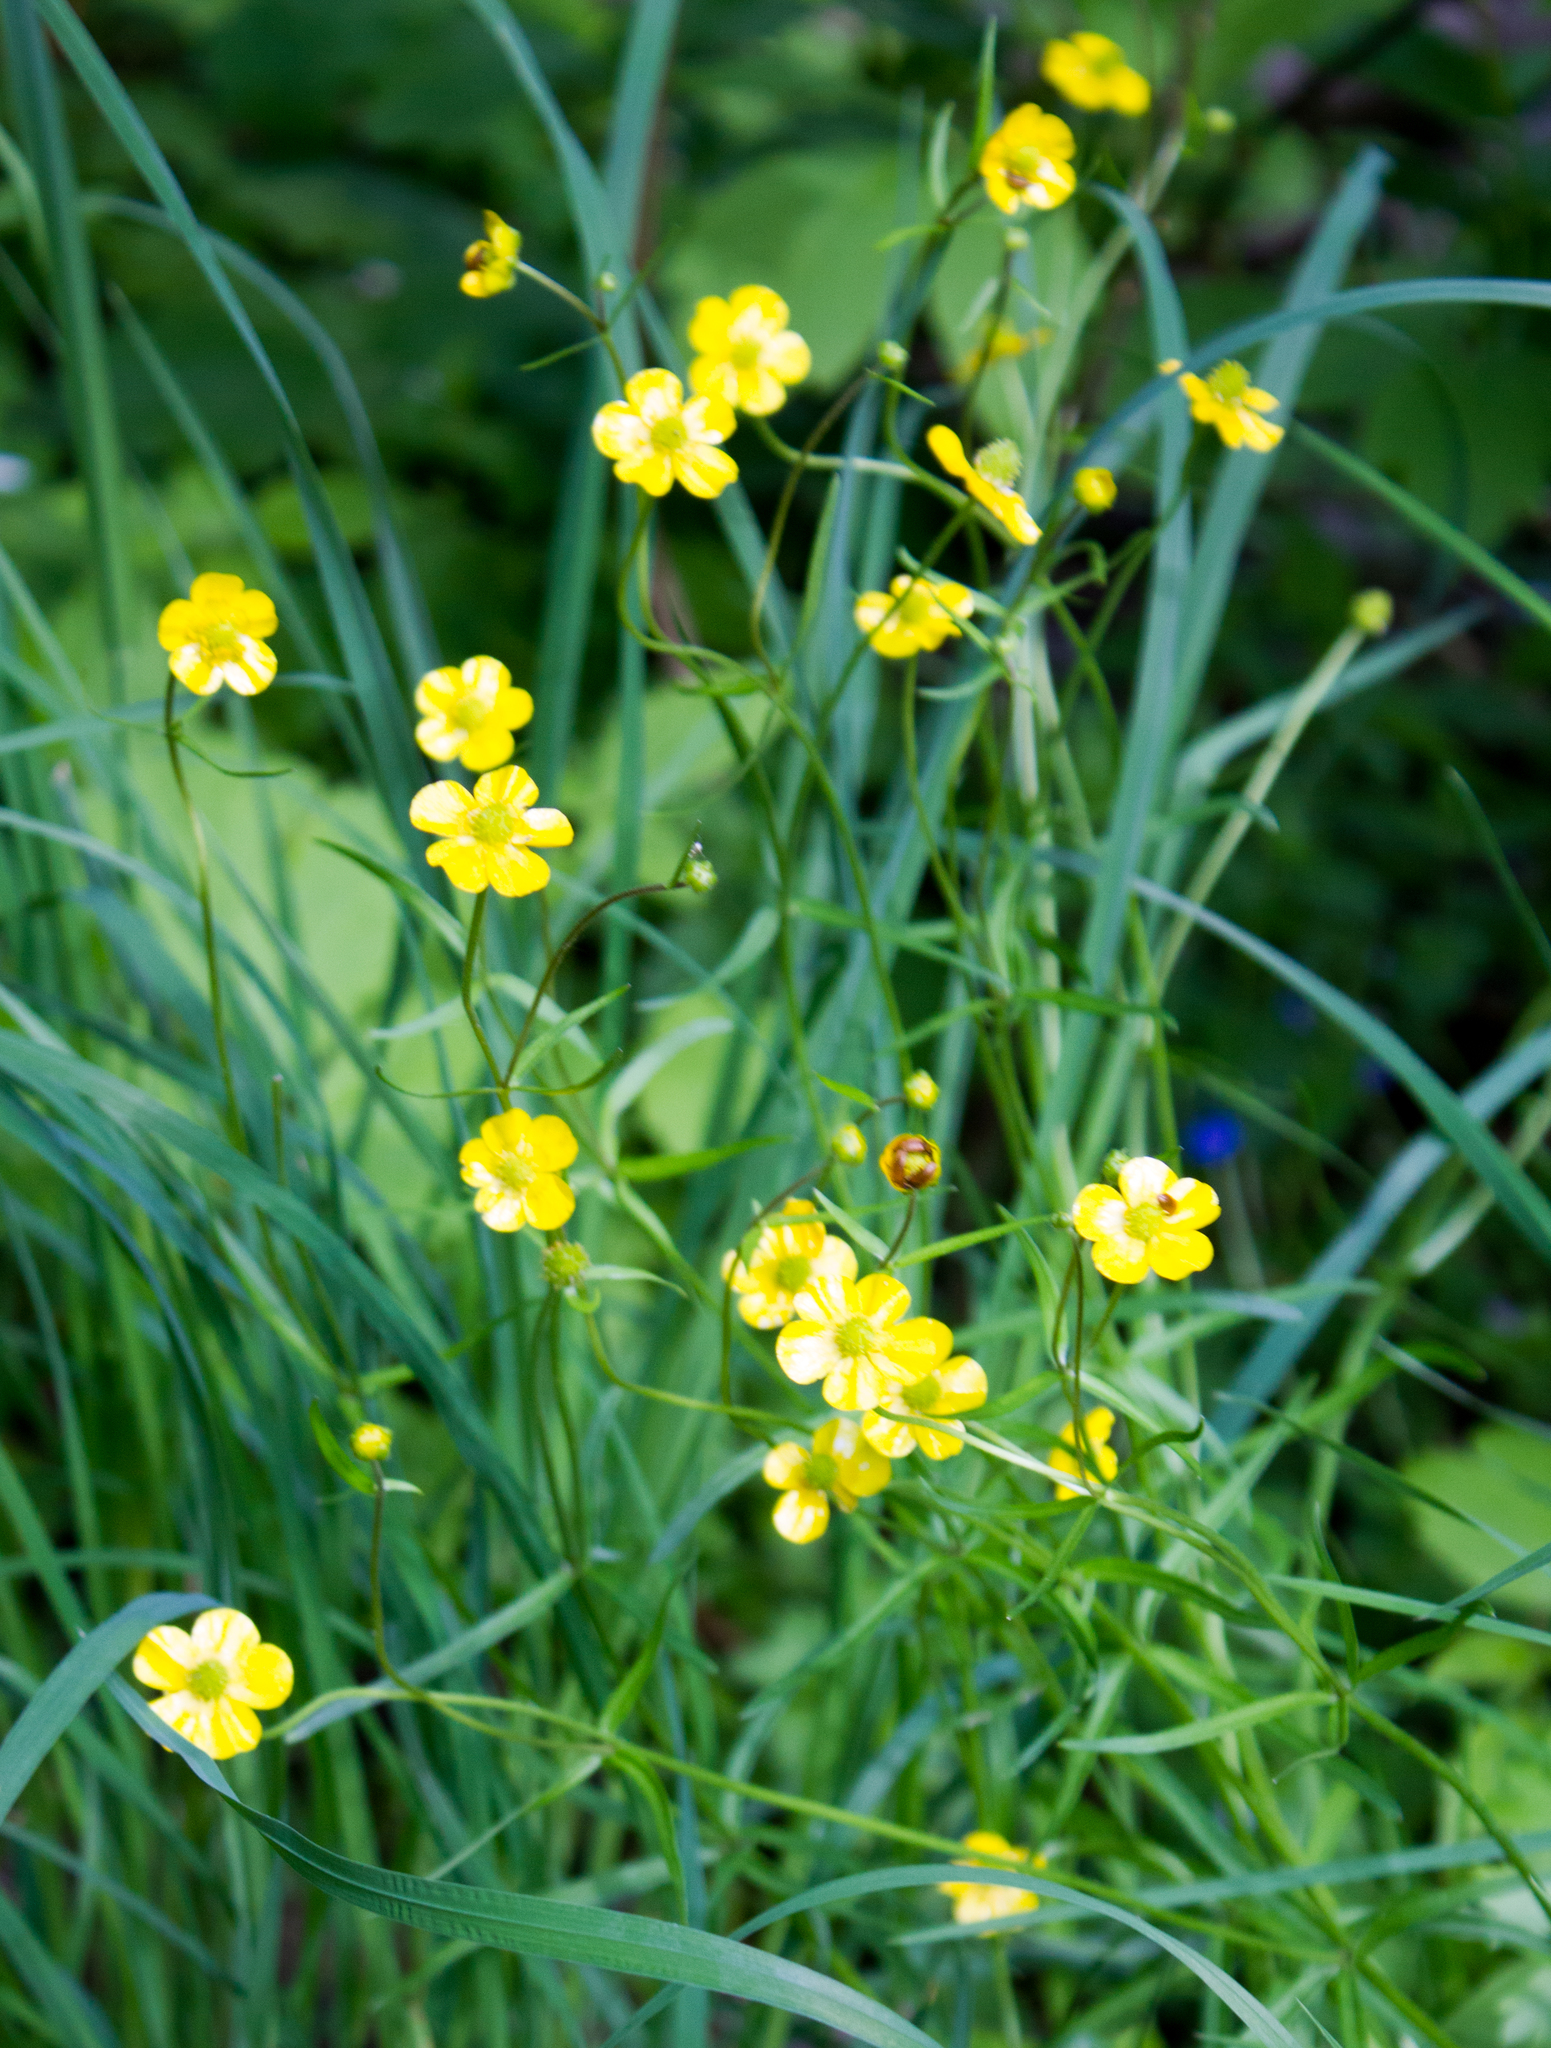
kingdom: Plantae
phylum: Tracheophyta
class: Magnoliopsida
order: Ranunculales
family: Ranunculaceae
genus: Ranunculus
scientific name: Ranunculus auricomus
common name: Goldilocks buttercup
